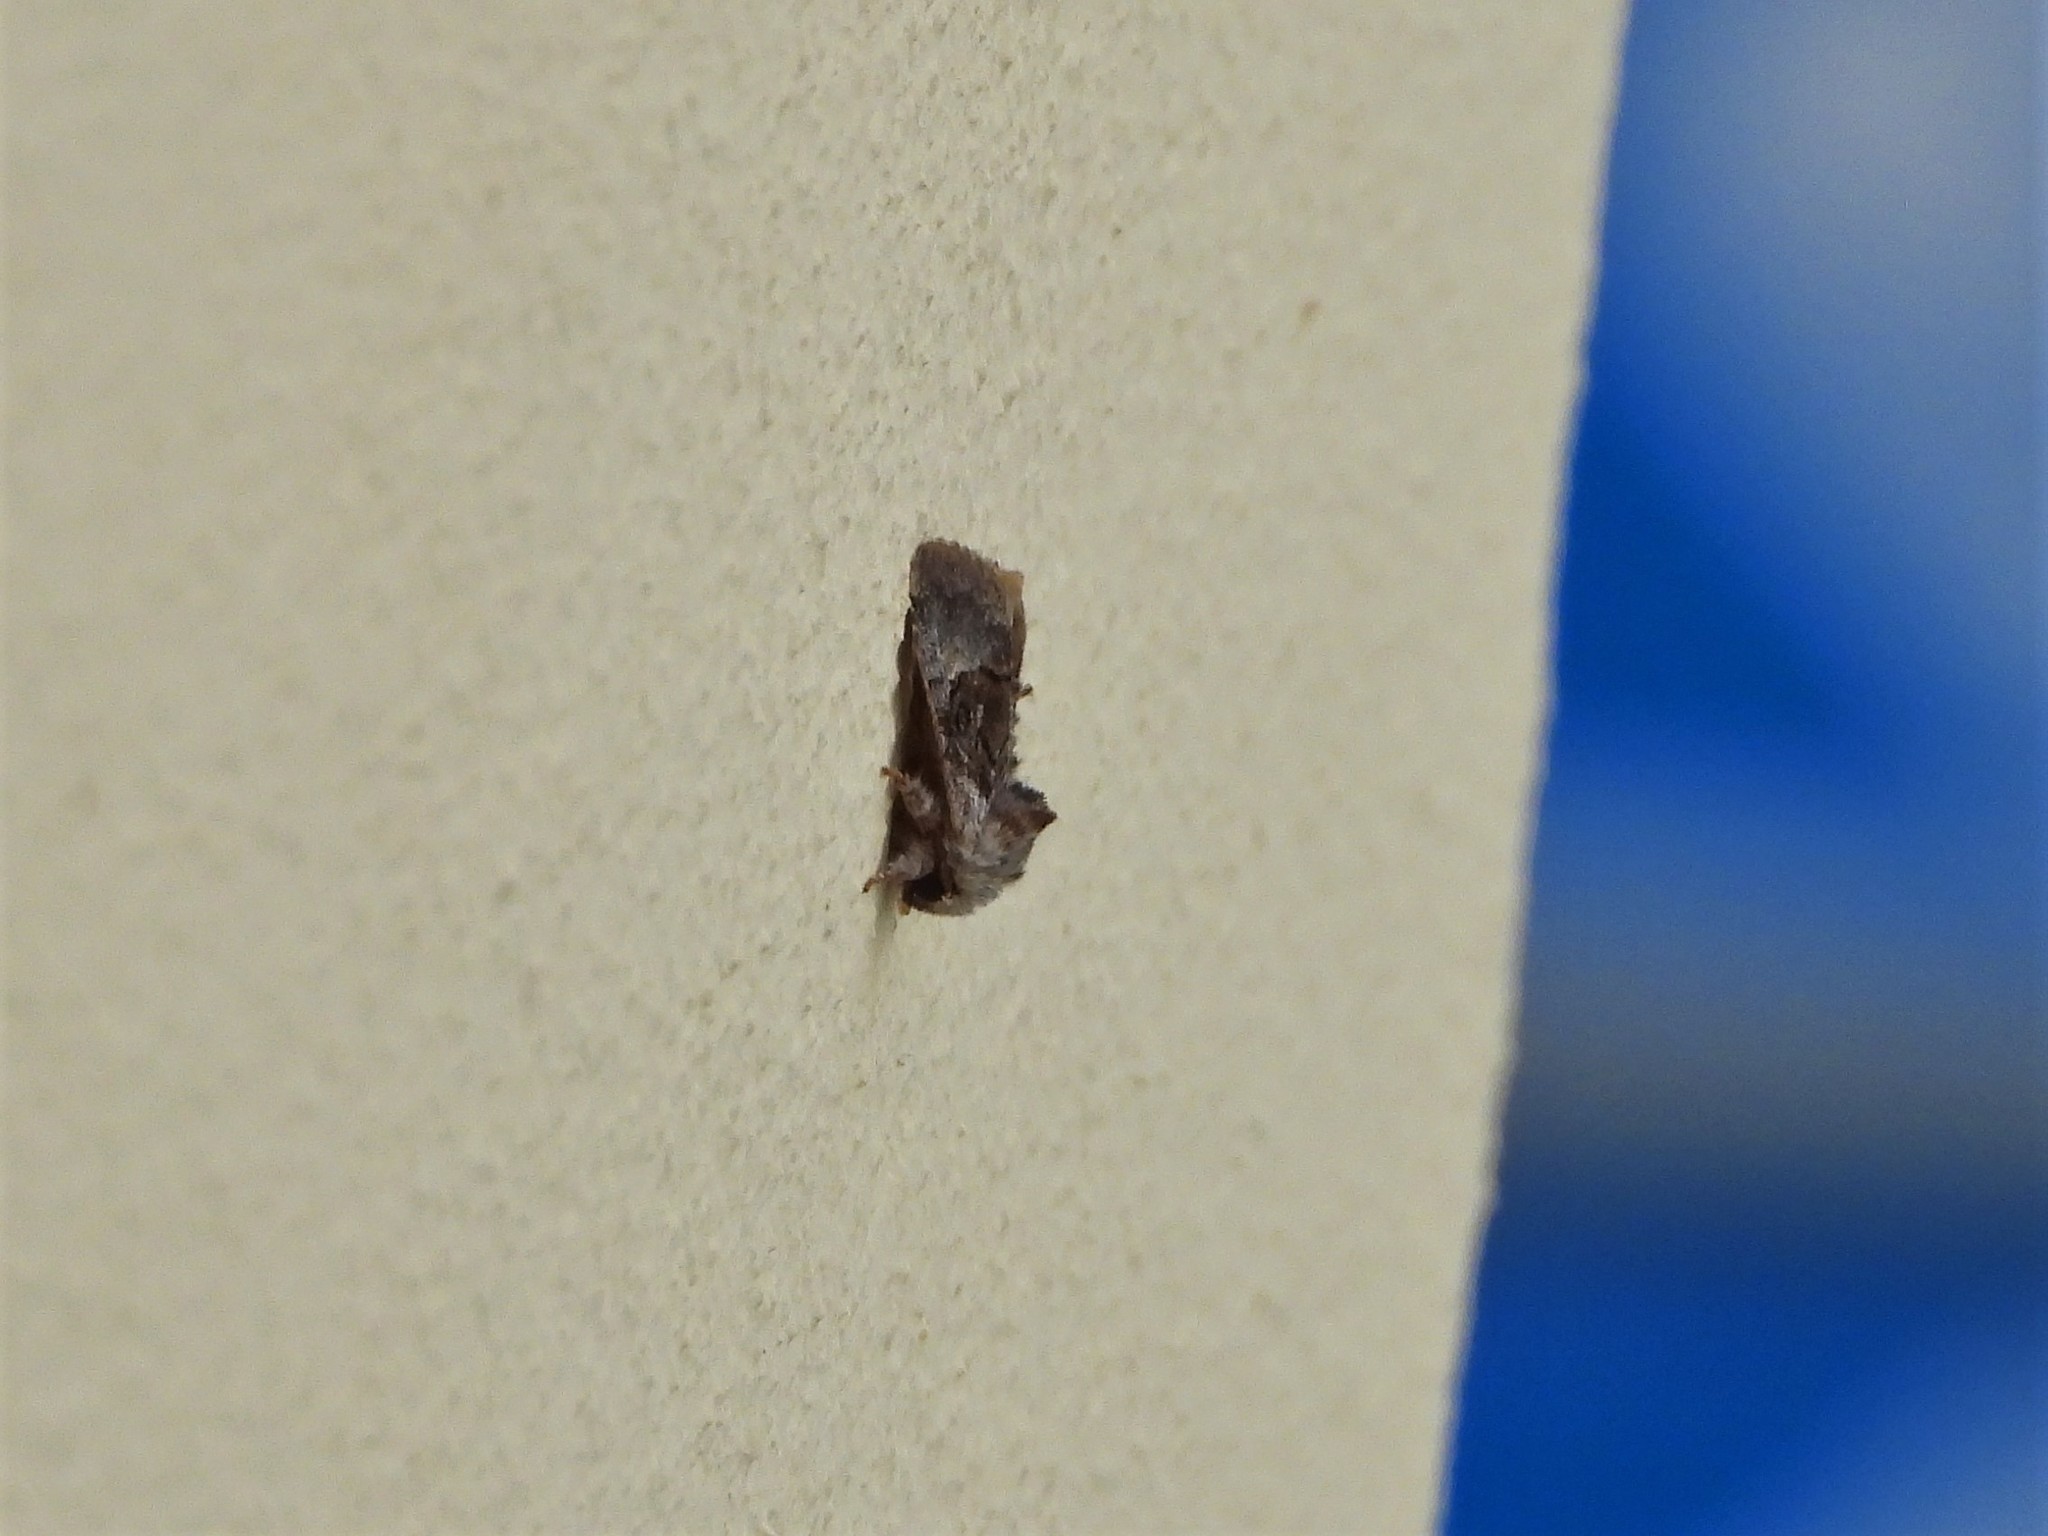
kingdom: Animalia
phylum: Arthropoda
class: Insecta
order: Lepidoptera
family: Noctuidae
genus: Colocasia
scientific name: Colocasia coryli
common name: Nut-tree tussock
